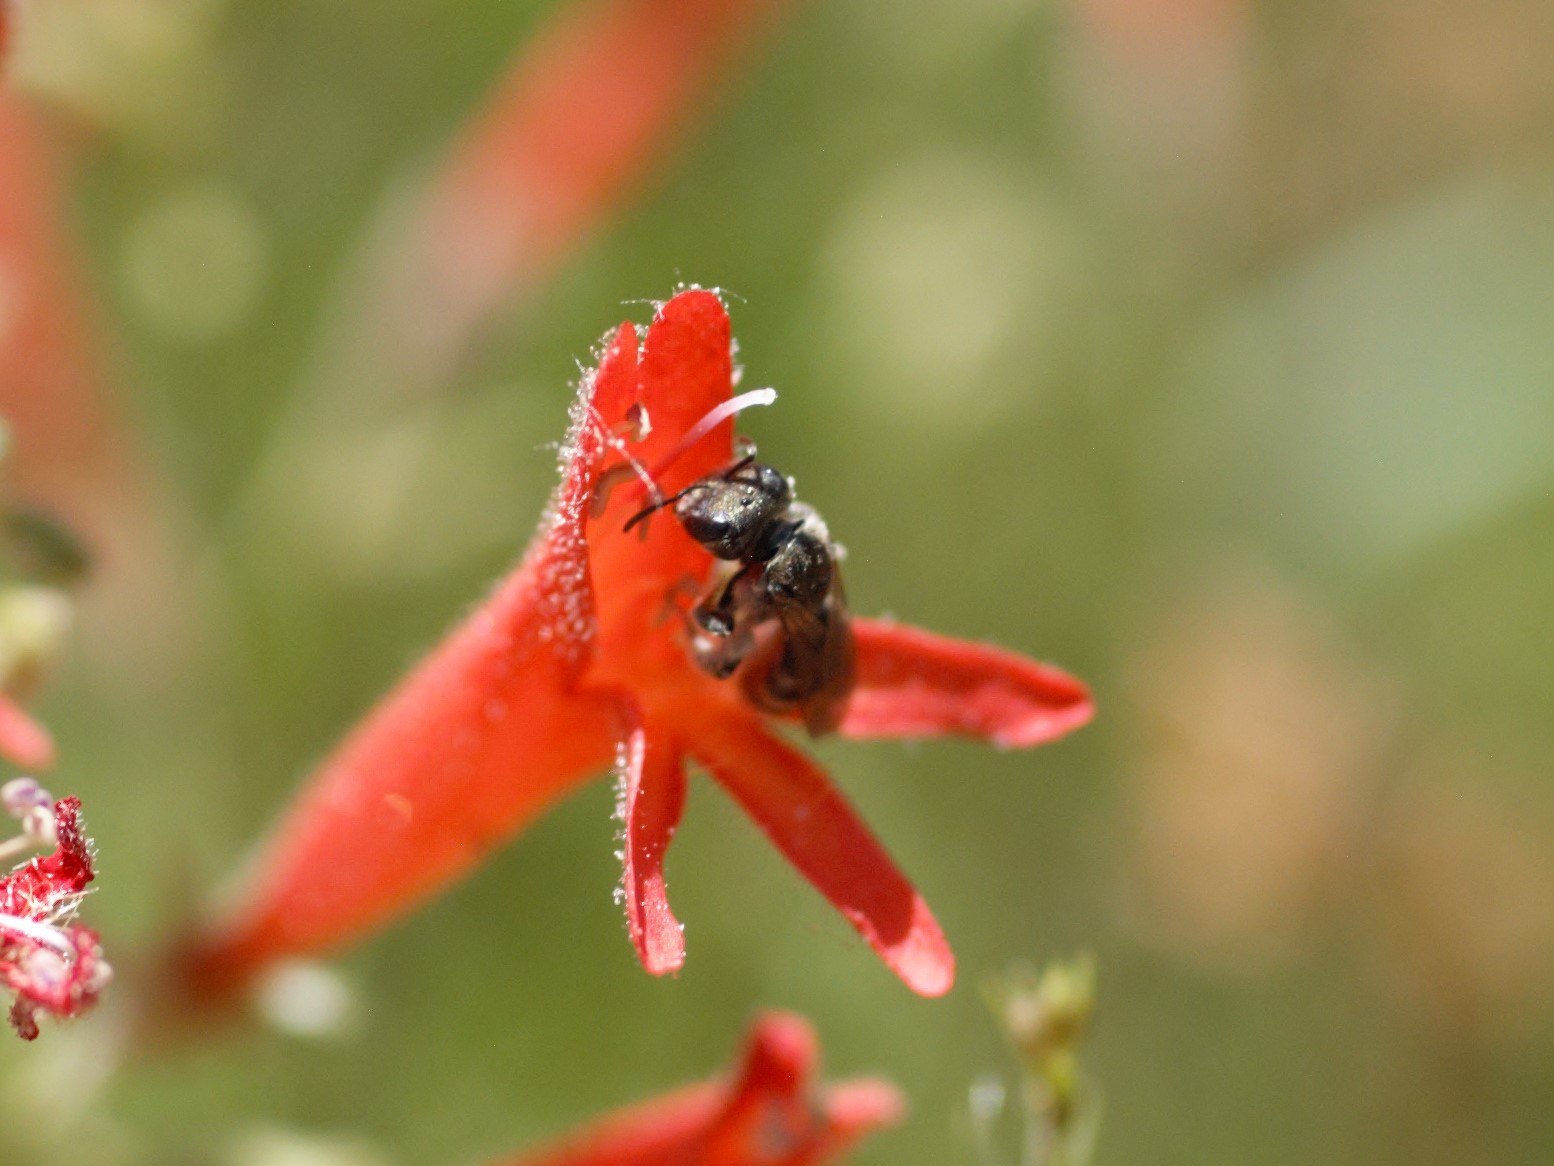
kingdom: Animalia
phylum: Arthropoda
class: Insecta
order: Hymenoptera
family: Halictidae
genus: Halictus
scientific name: Halictus tripartitus
